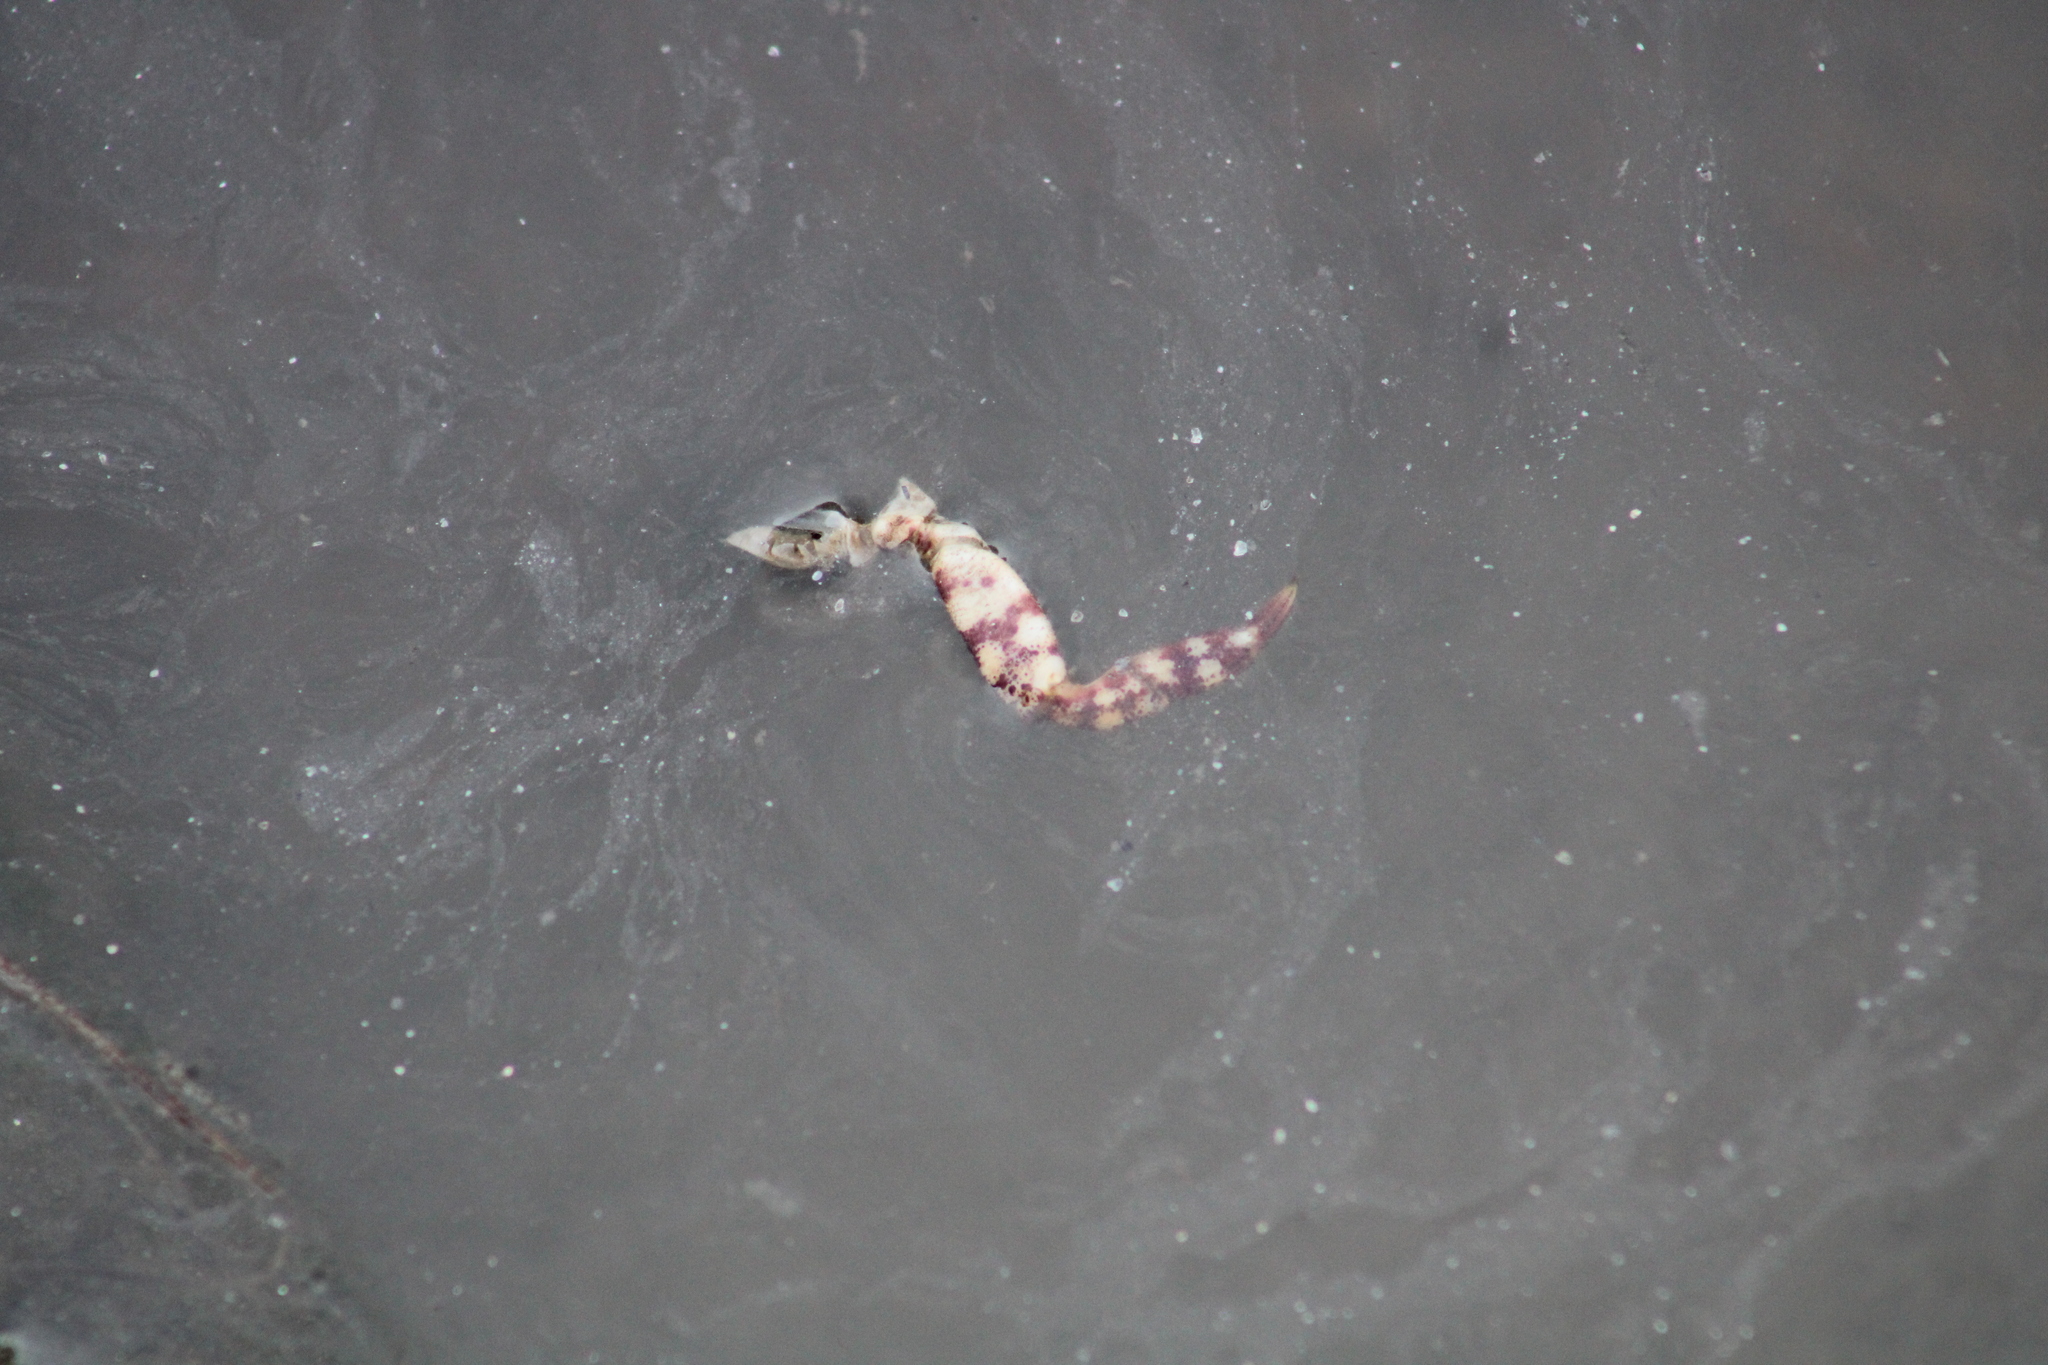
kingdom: Animalia
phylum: Arthropoda
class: Malacostraca
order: Decapoda
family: Varunidae
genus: Hemigrapsus
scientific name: Hemigrapsus sanguineus
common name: Asian shore crab
